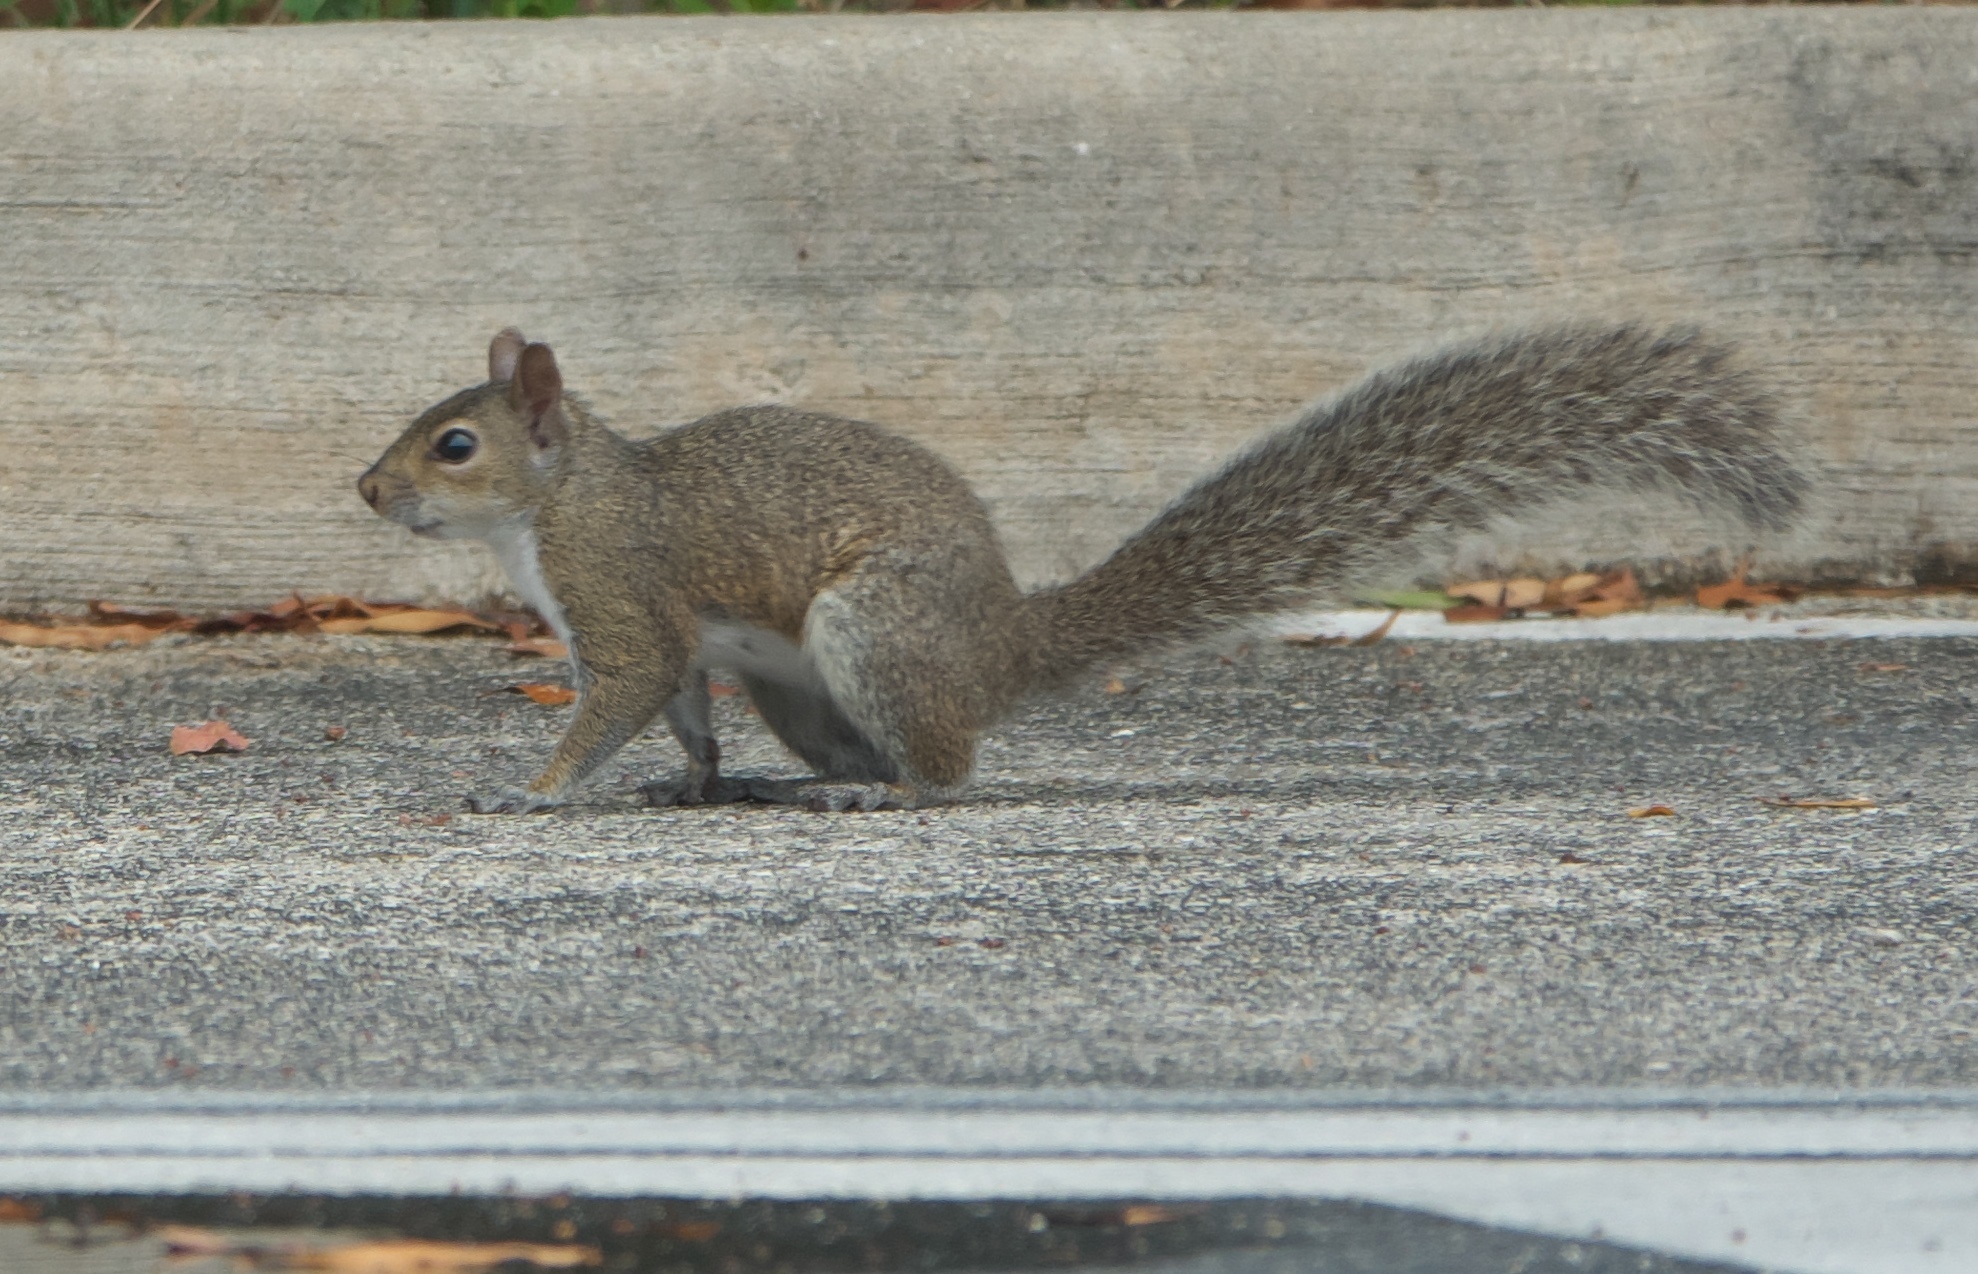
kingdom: Animalia
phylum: Chordata
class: Mammalia
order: Rodentia
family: Sciuridae
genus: Sciurus
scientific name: Sciurus carolinensis
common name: Eastern gray squirrel
